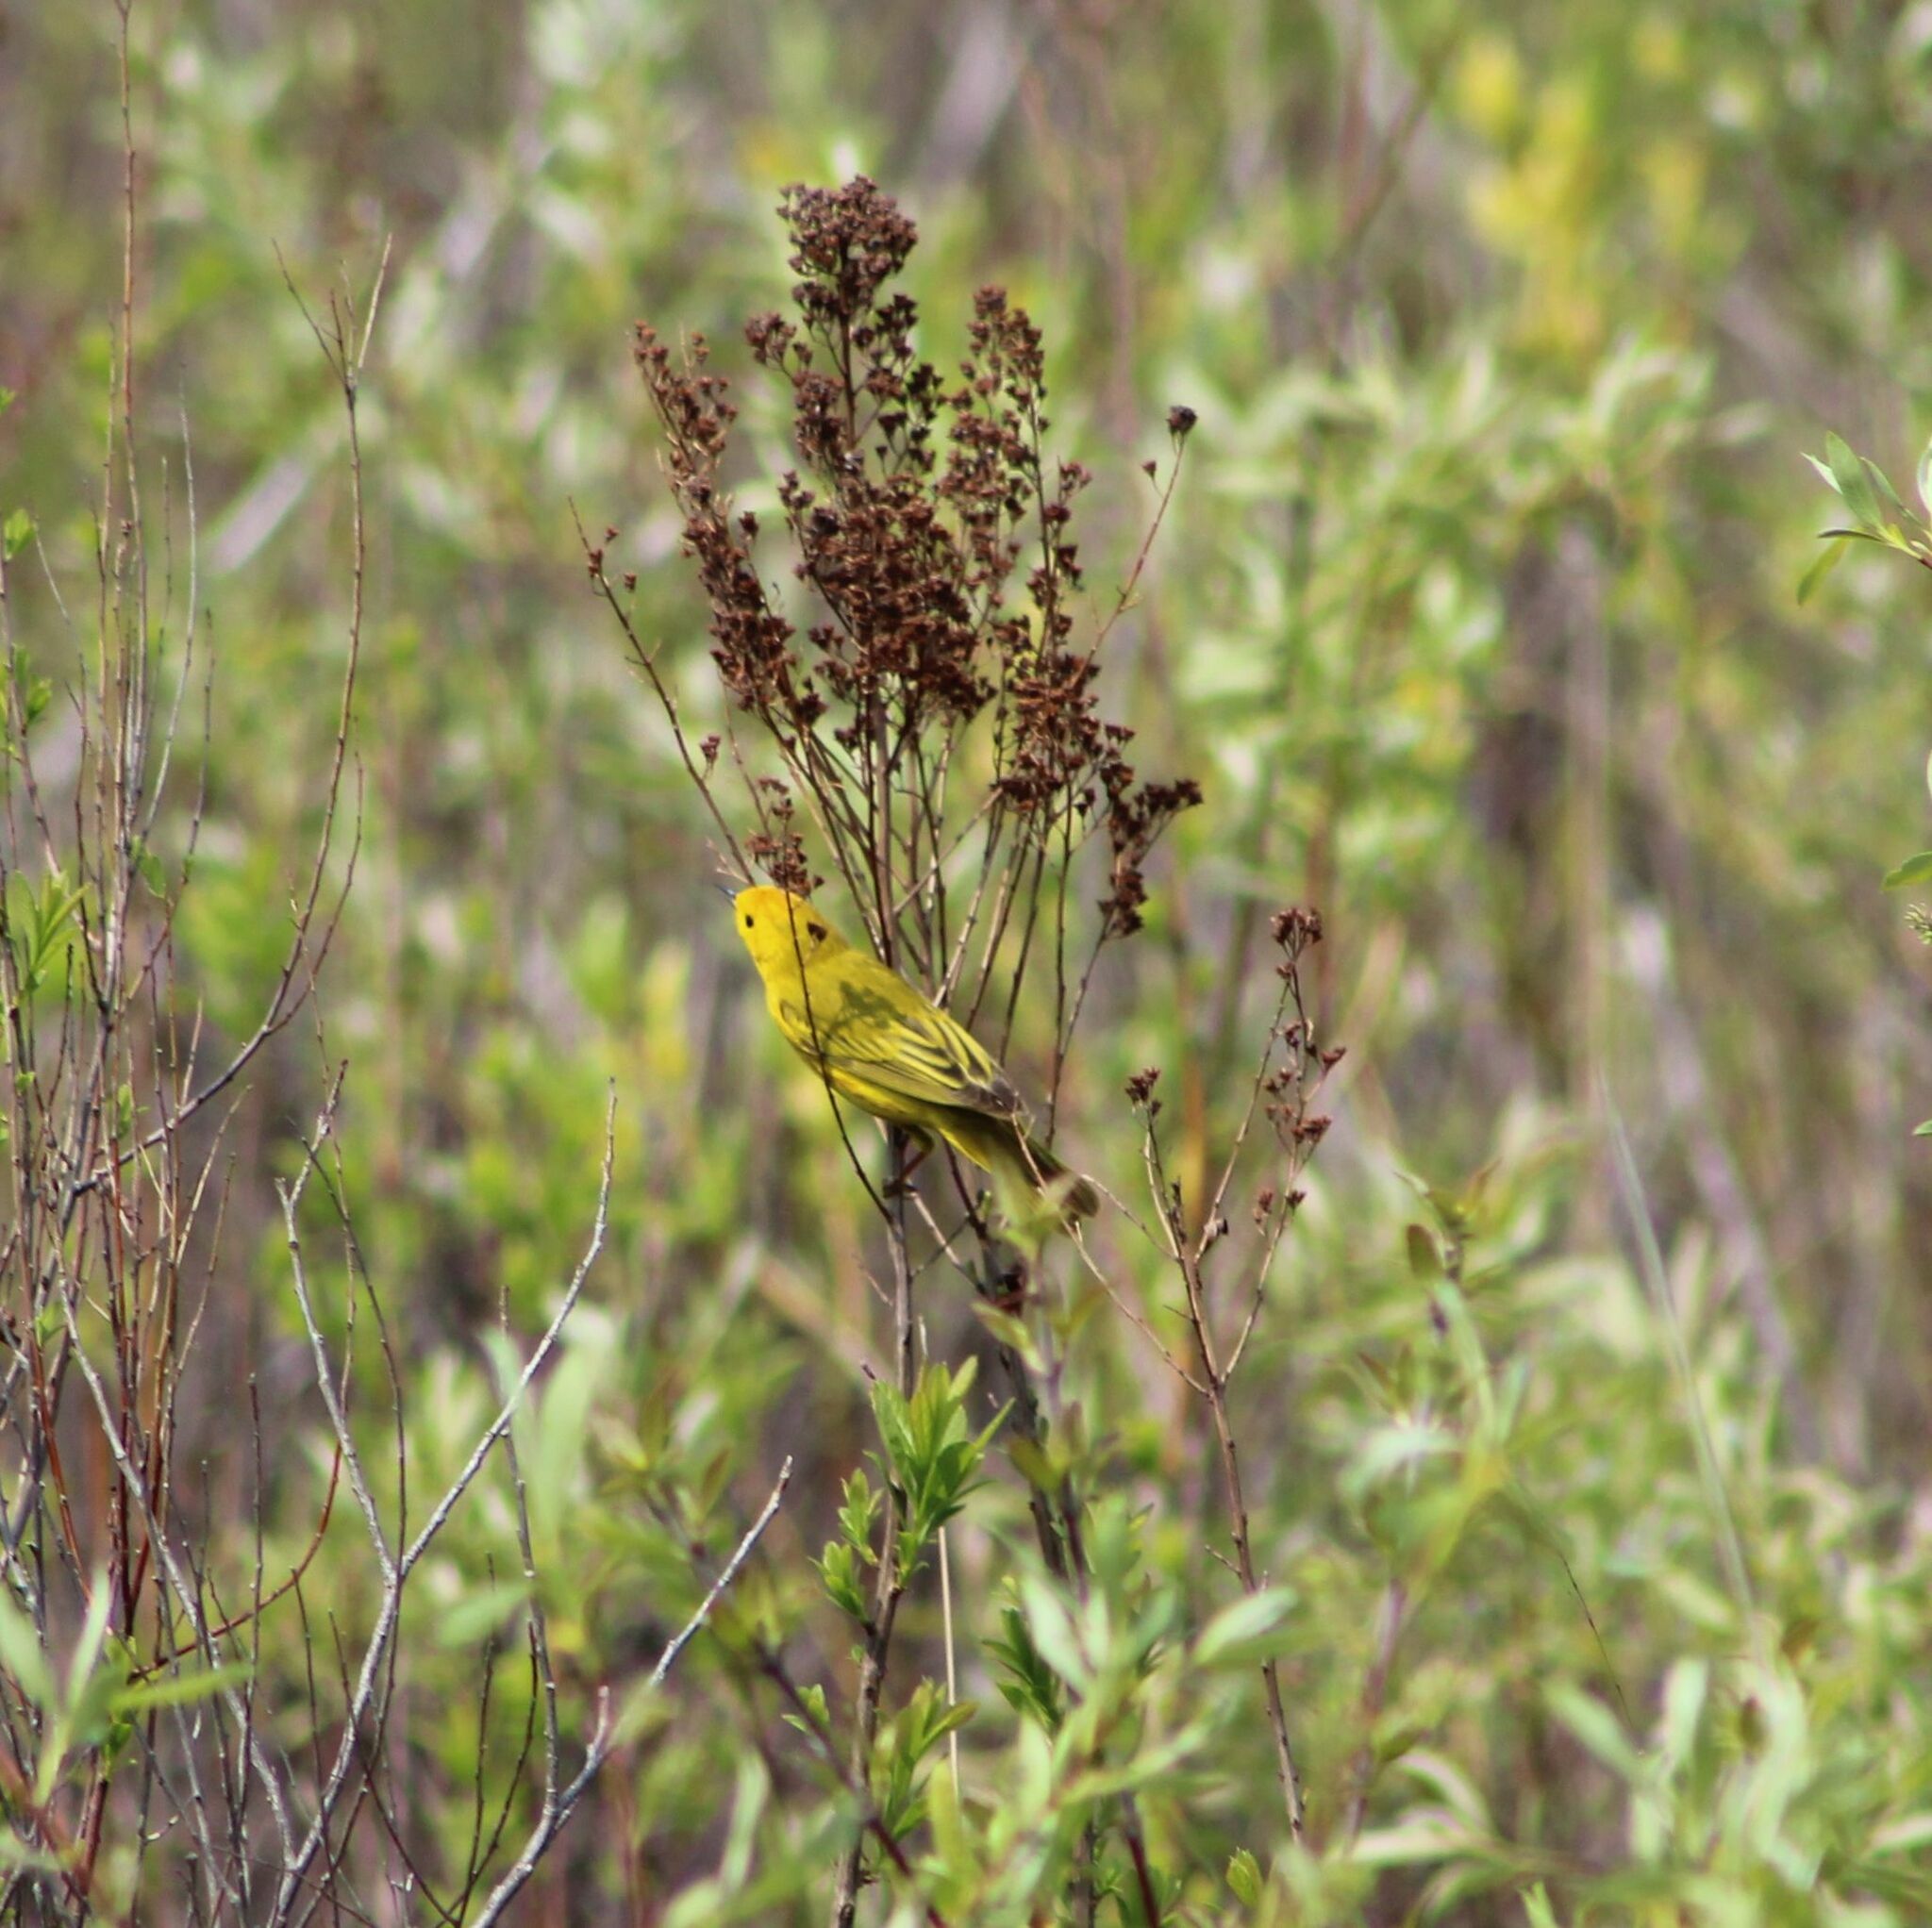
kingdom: Animalia
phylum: Chordata
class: Aves
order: Passeriformes
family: Parulidae
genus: Setophaga
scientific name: Setophaga petechia
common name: Yellow warbler
